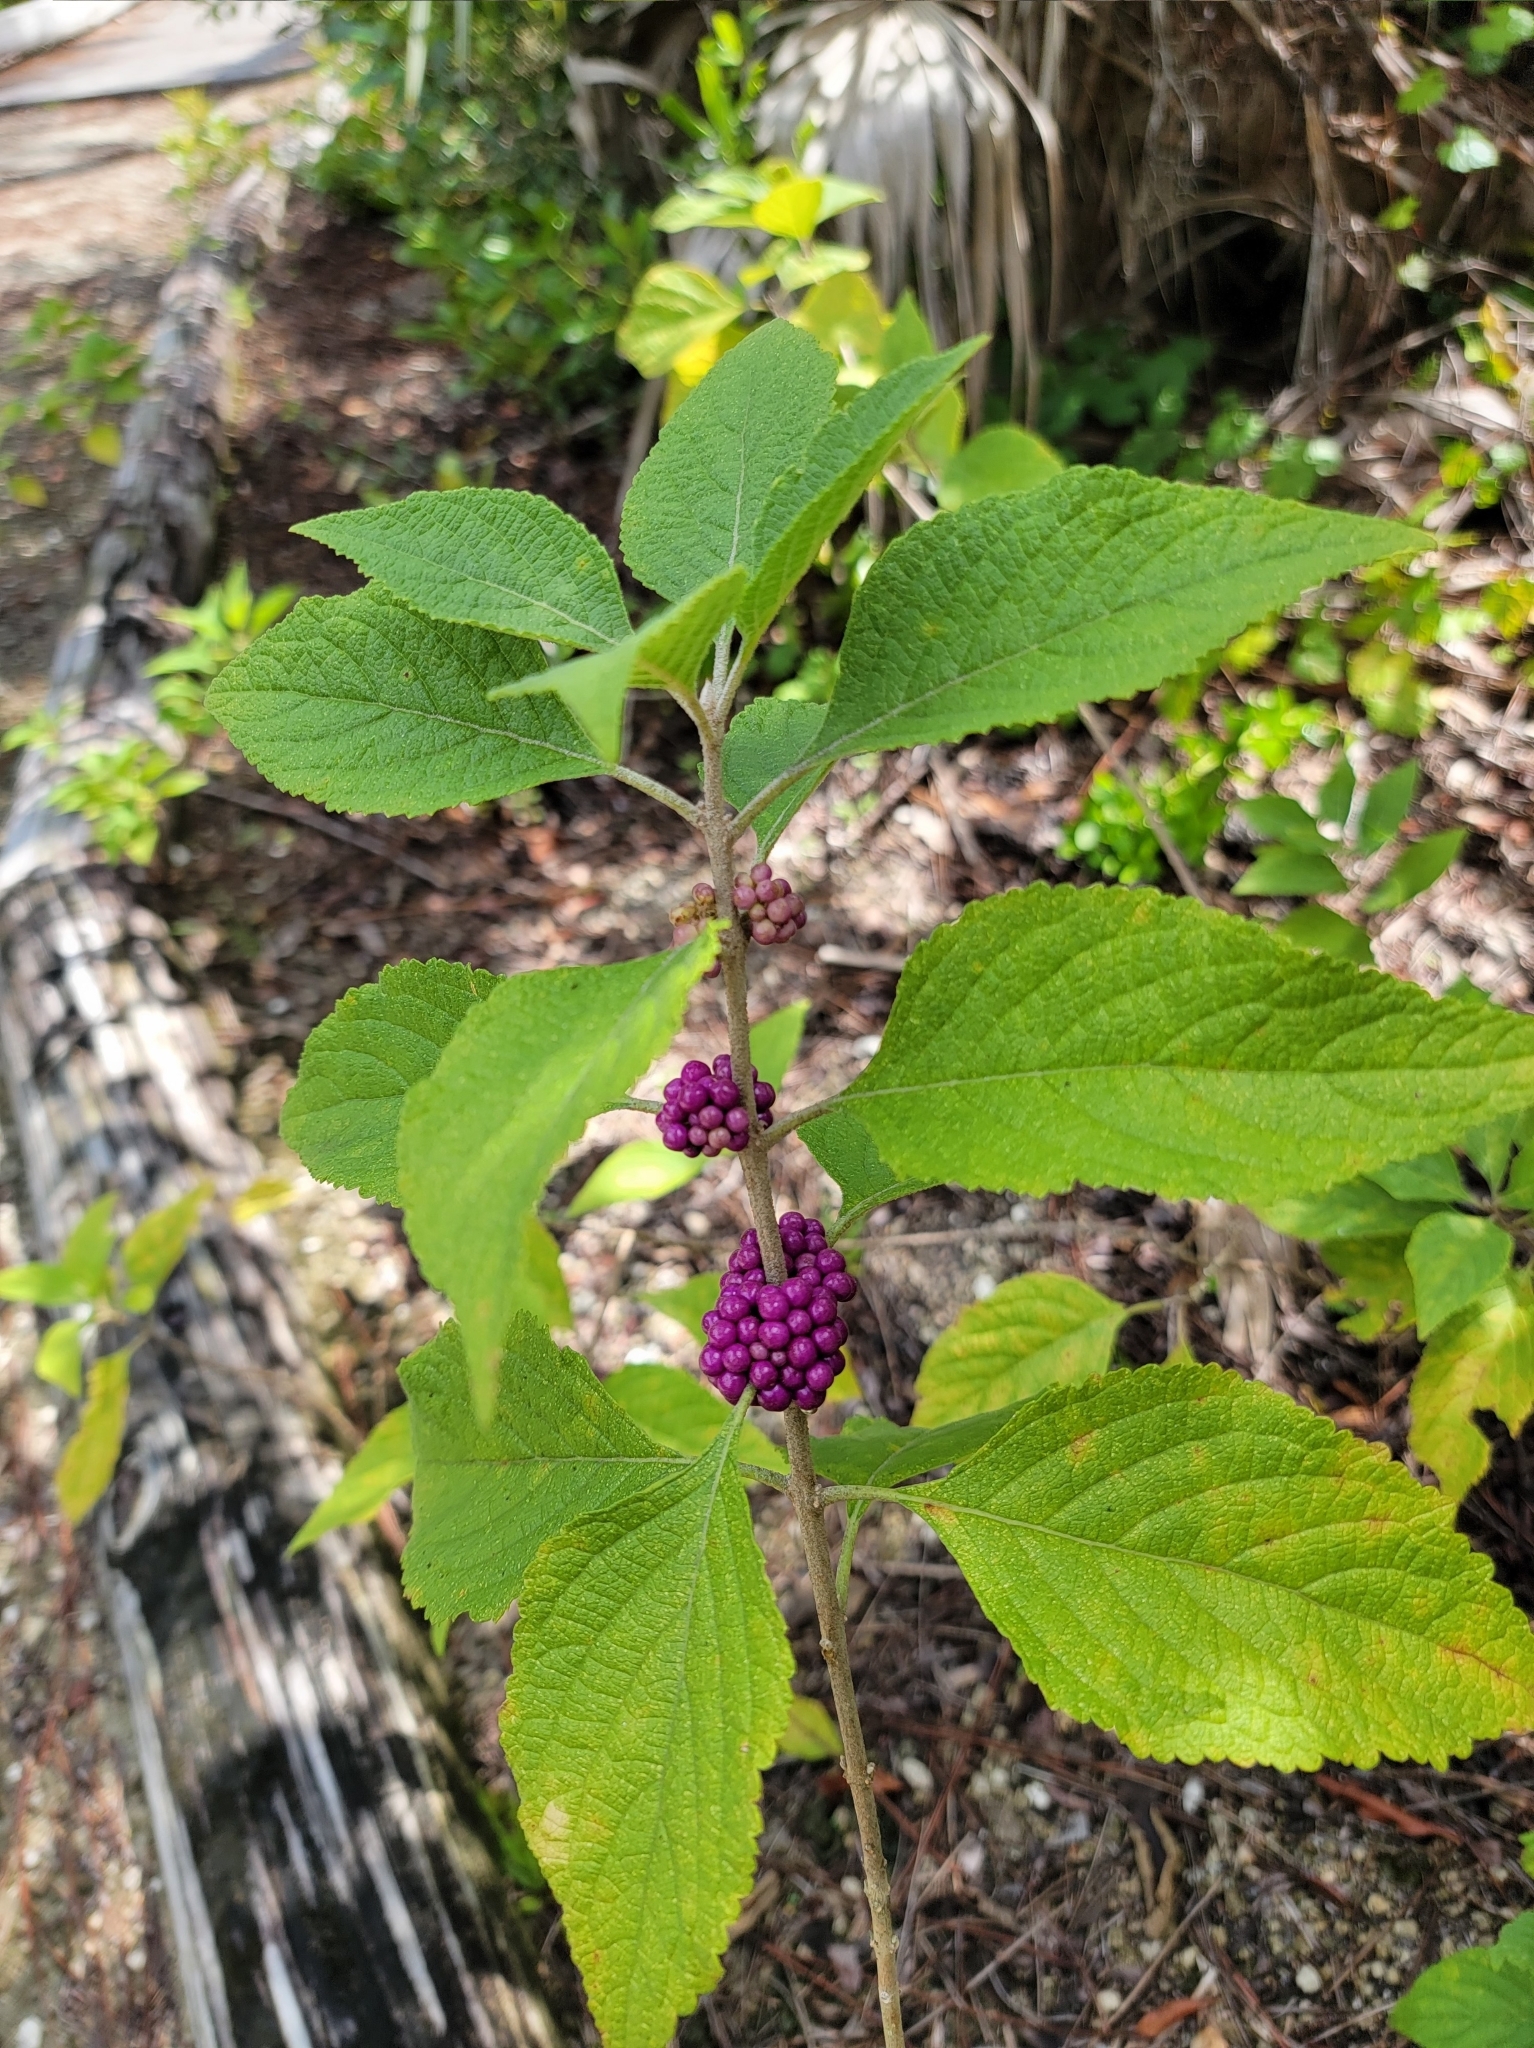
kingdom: Plantae
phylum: Tracheophyta
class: Magnoliopsida
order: Lamiales
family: Lamiaceae
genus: Callicarpa
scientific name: Callicarpa americana
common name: American beautyberry
